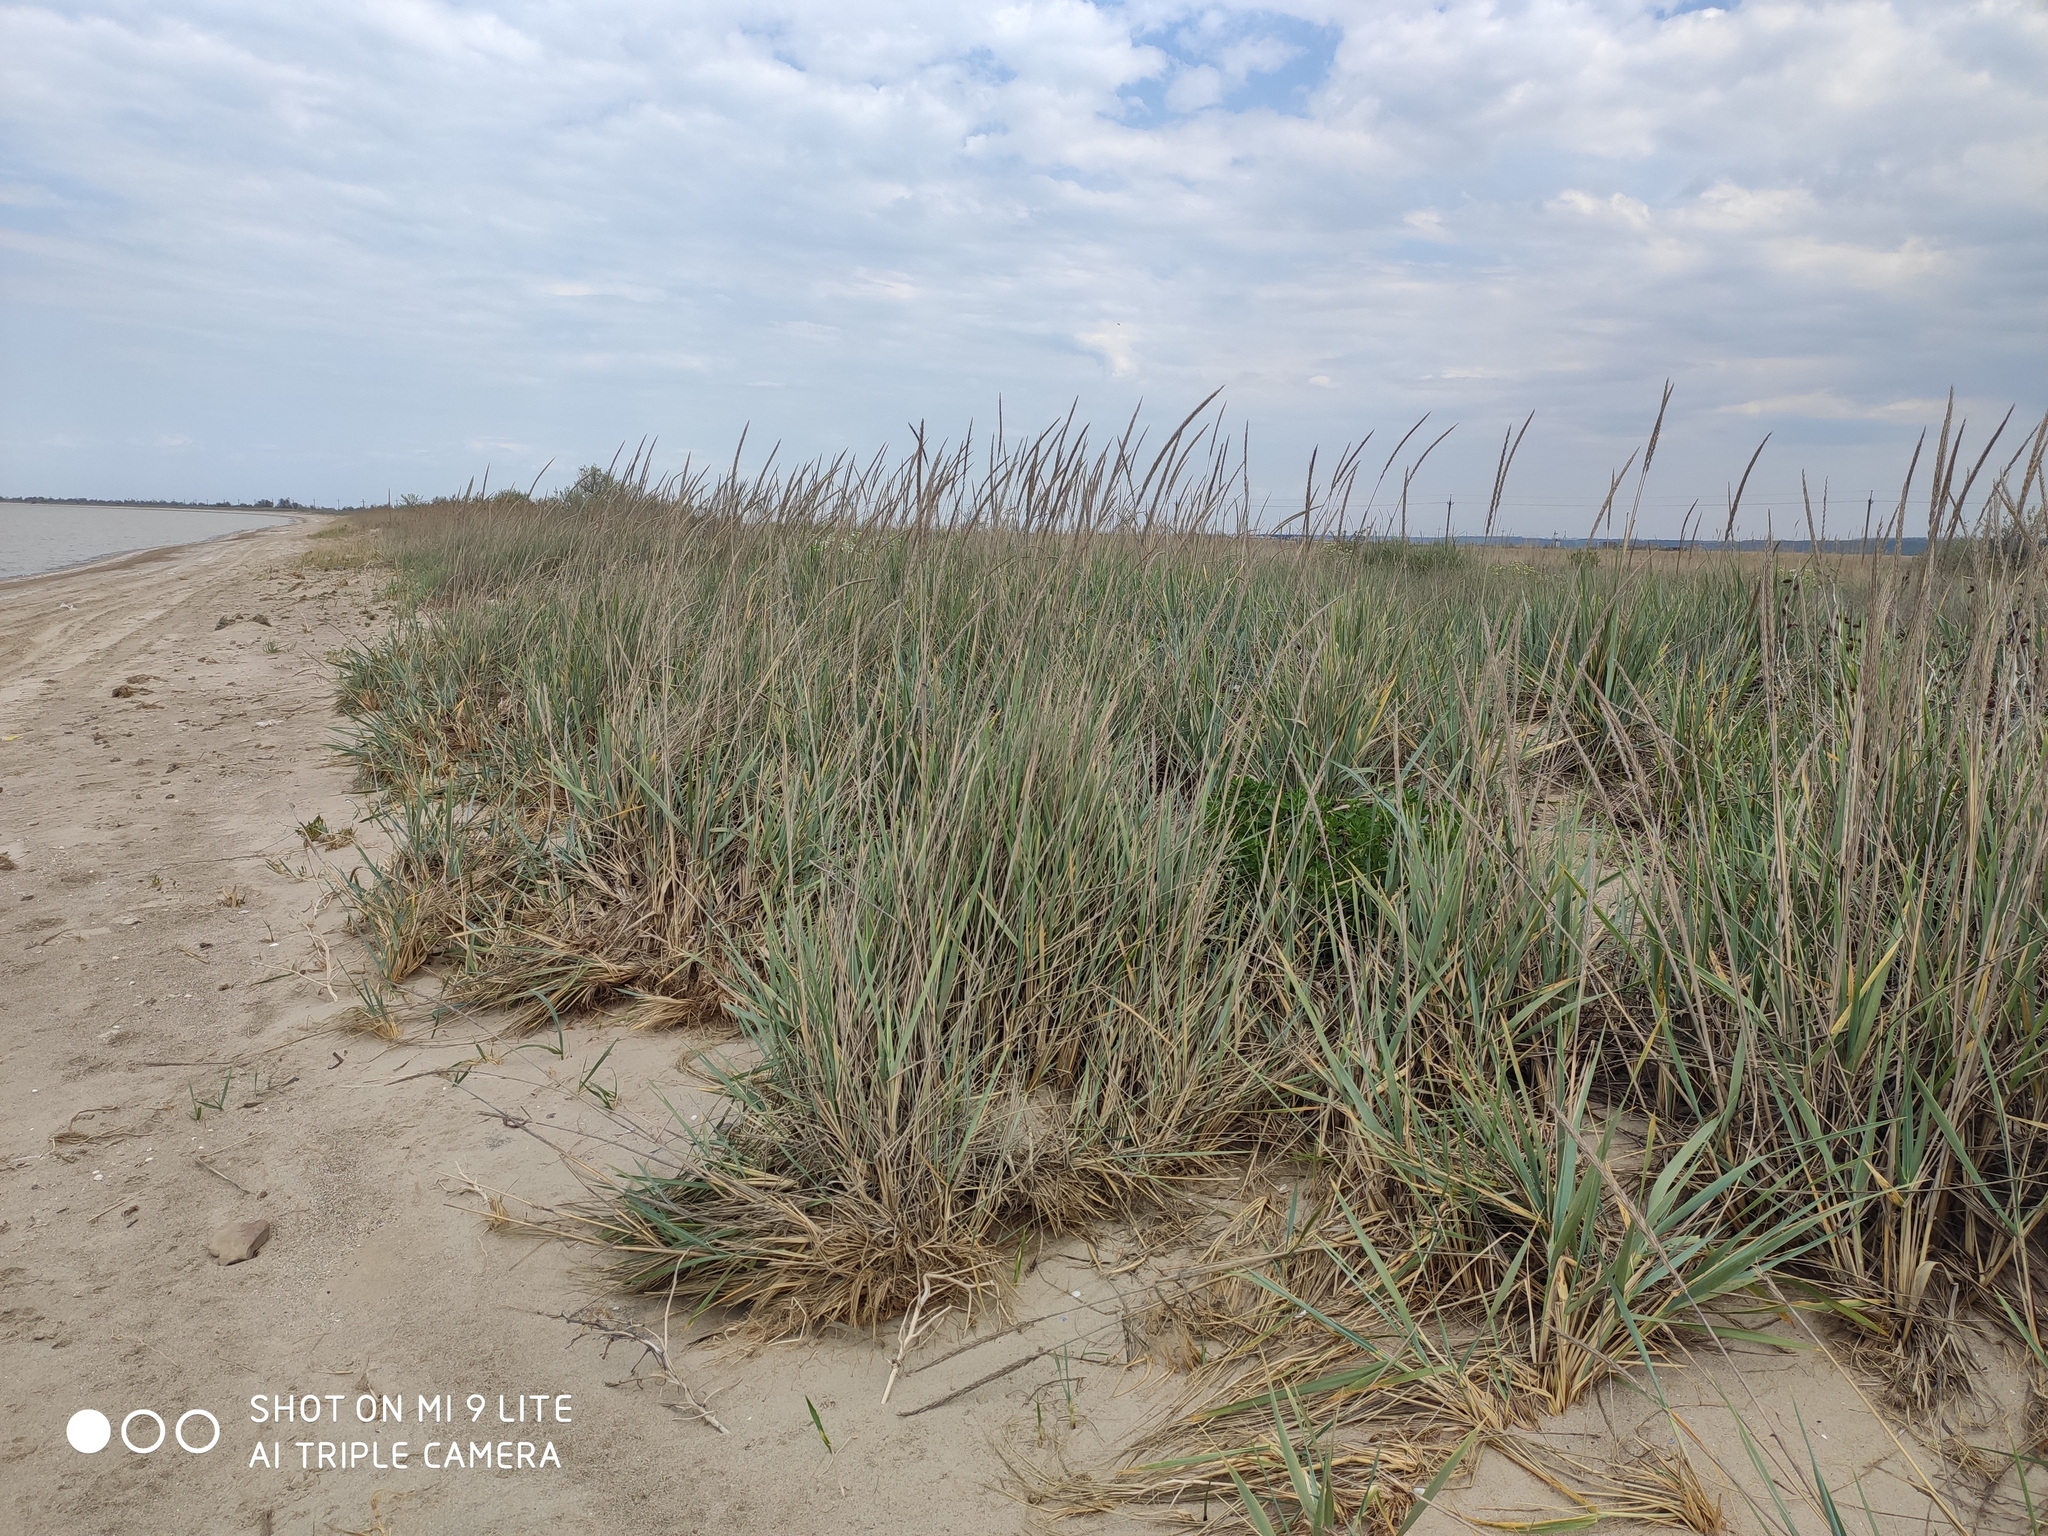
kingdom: Plantae
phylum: Tracheophyta
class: Liliopsida
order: Poales
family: Poaceae
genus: Leymus
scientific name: Leymus racemosus
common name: Mammoth wildrye
